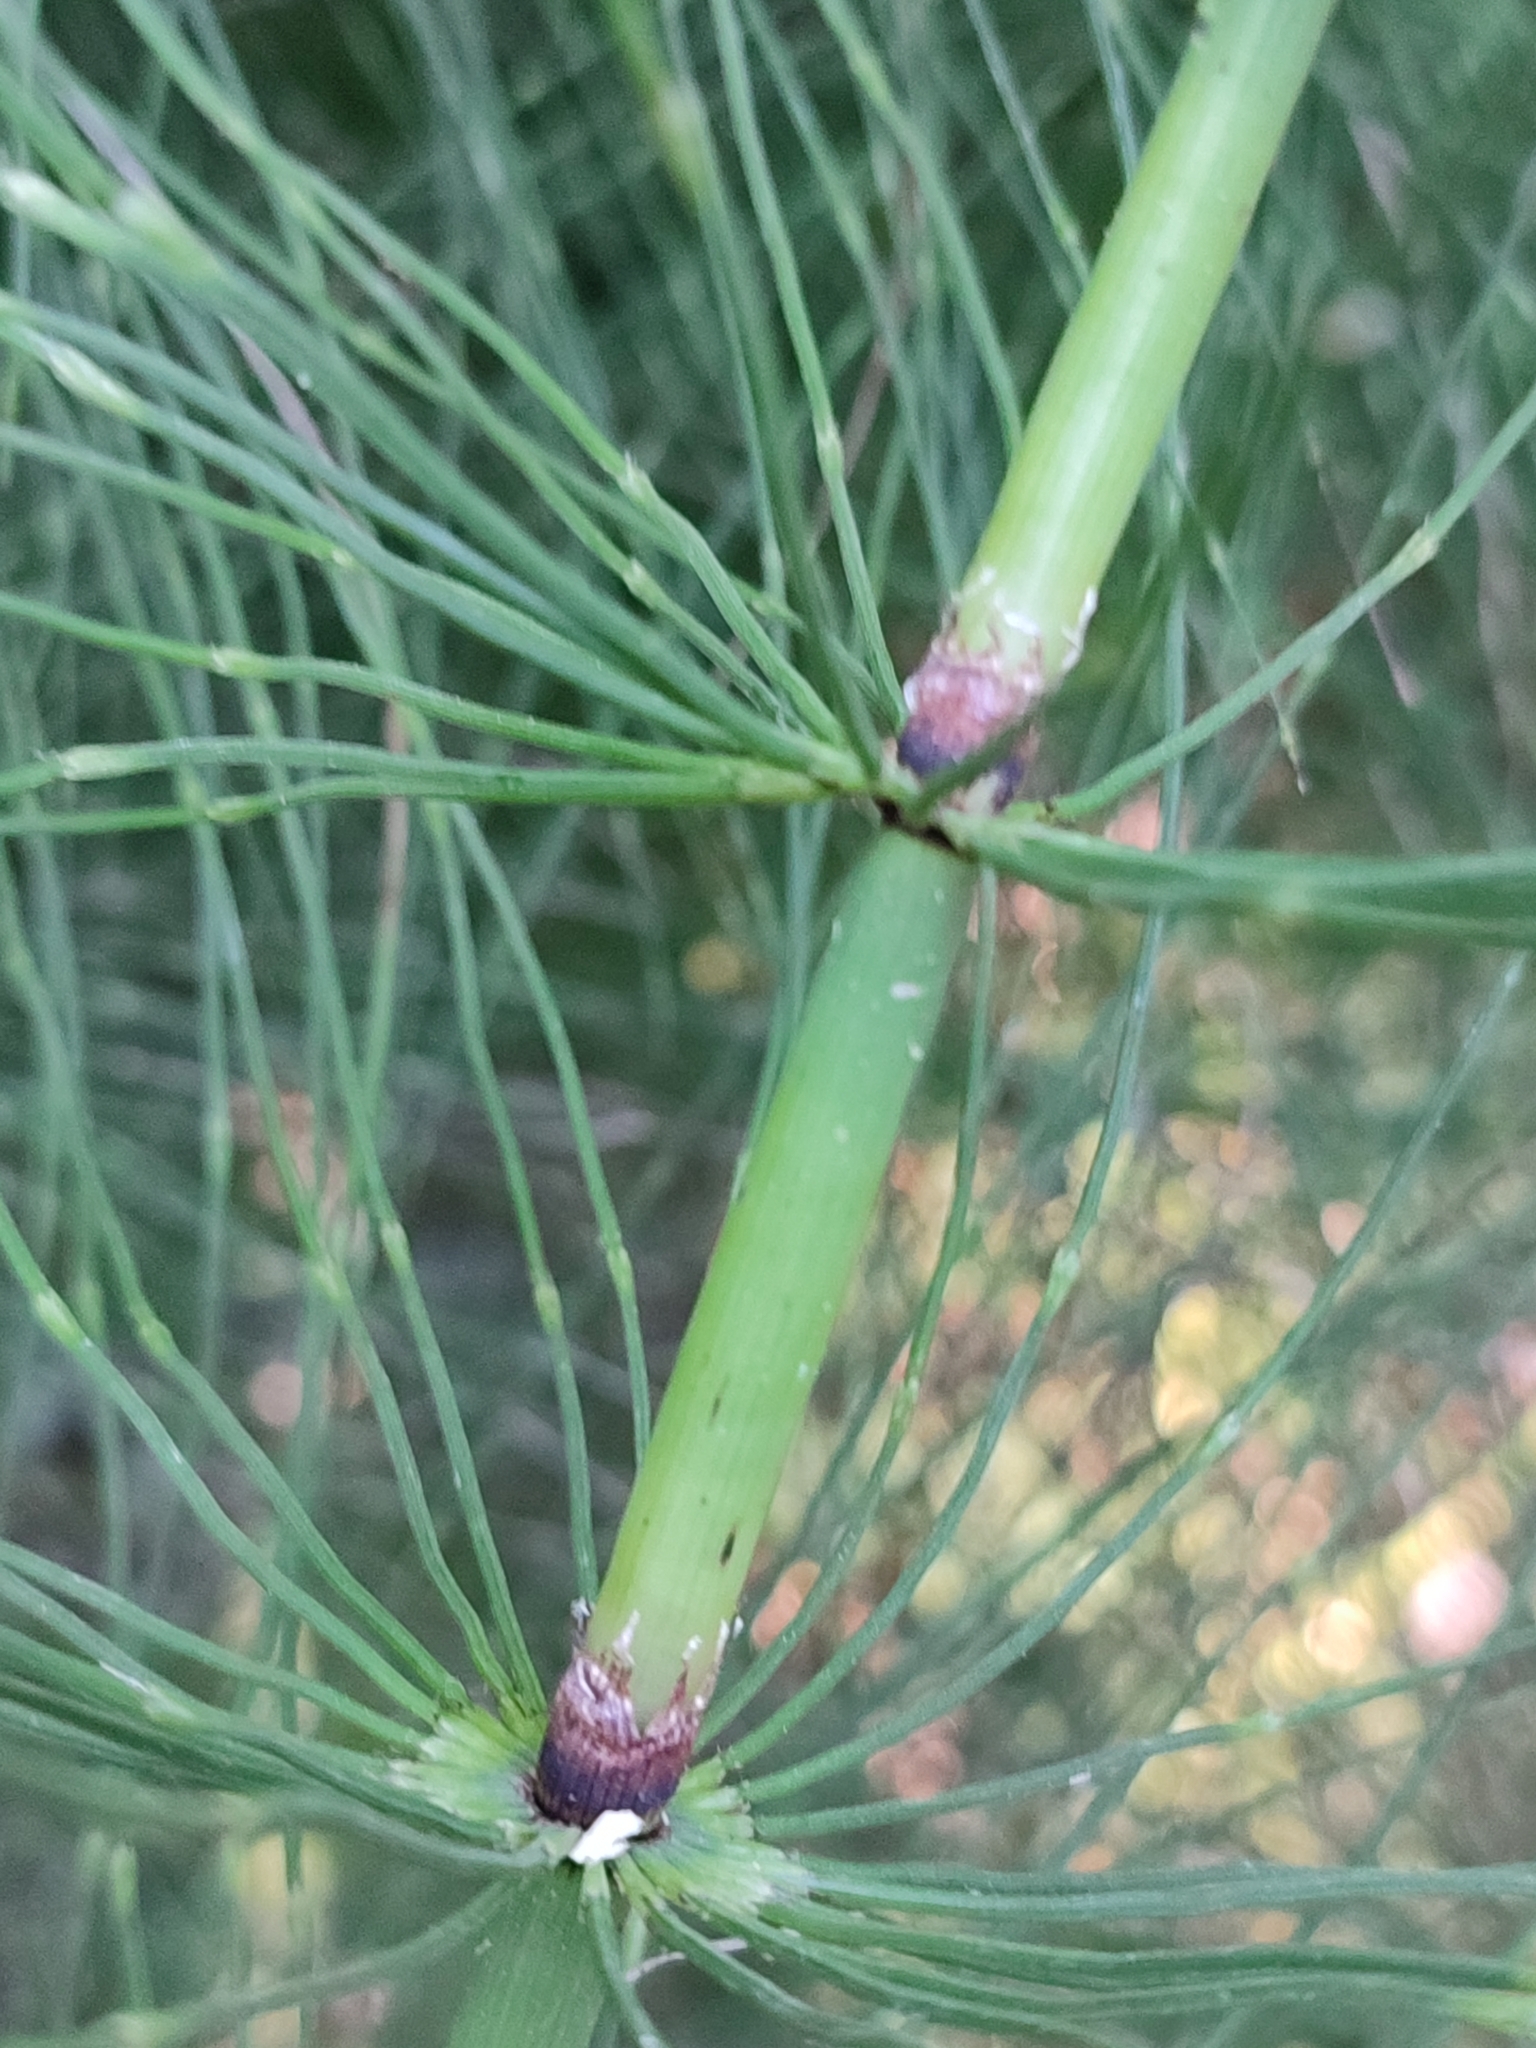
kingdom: Plantae
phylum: Tracheophyta
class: Polypodiopsida
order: Equisetales
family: Equisetaceae
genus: Equisetum
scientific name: Equisetum telmateia
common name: Great horsetail
